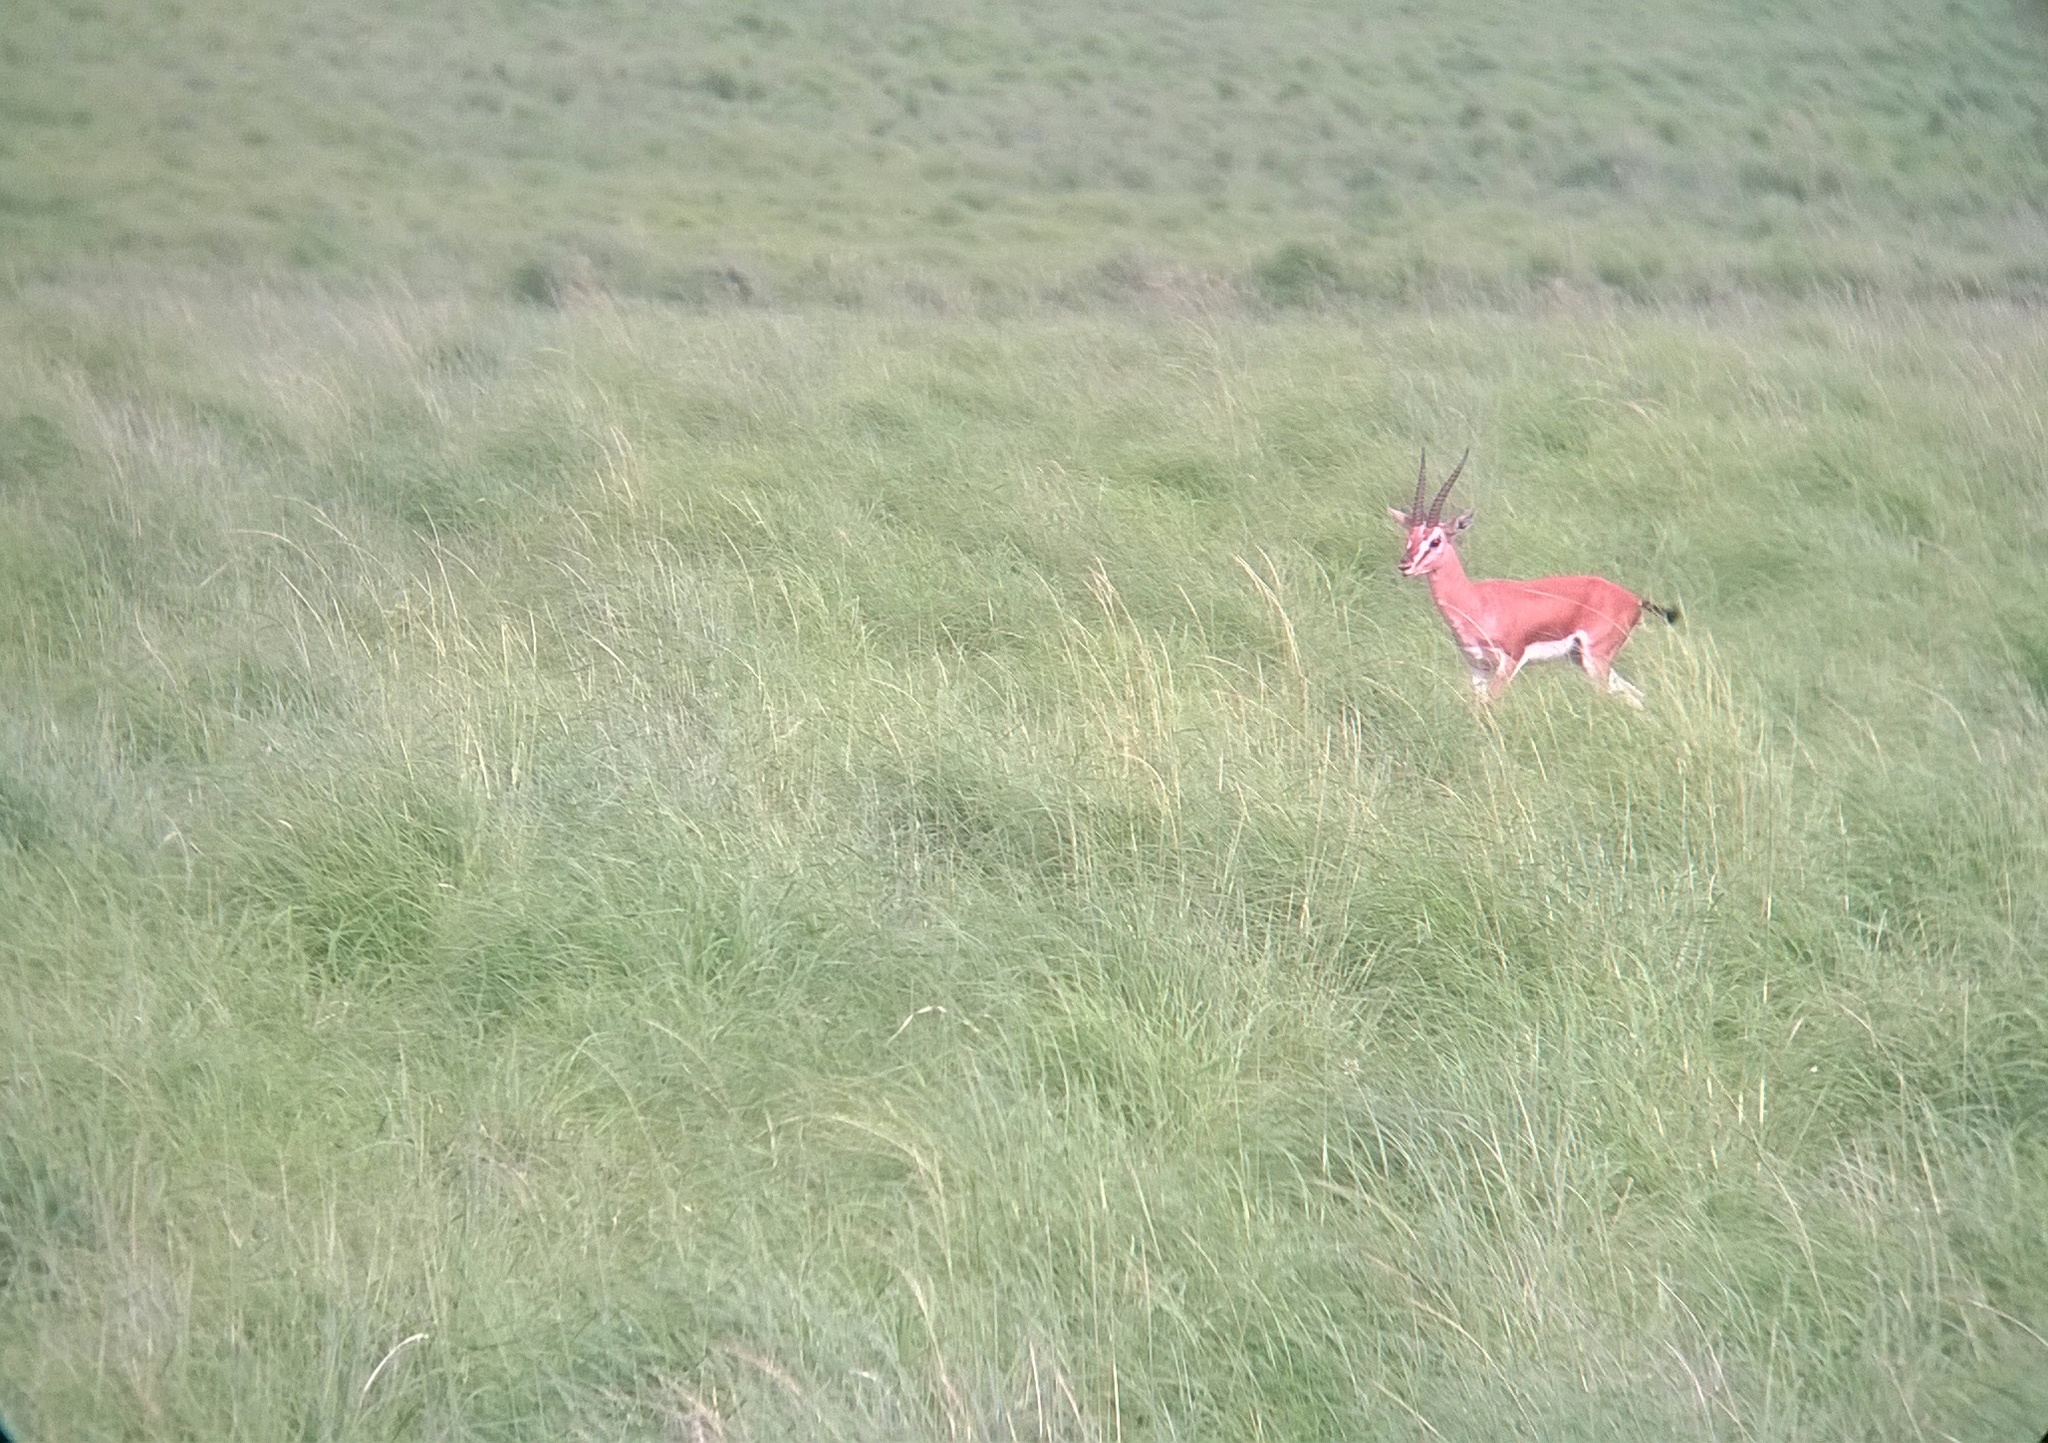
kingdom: Animalia
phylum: Chordata
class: Mammalia
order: Artiodactyla
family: Bovidae
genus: Gazella
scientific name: Gazella bennettii
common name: Indian gazelle
